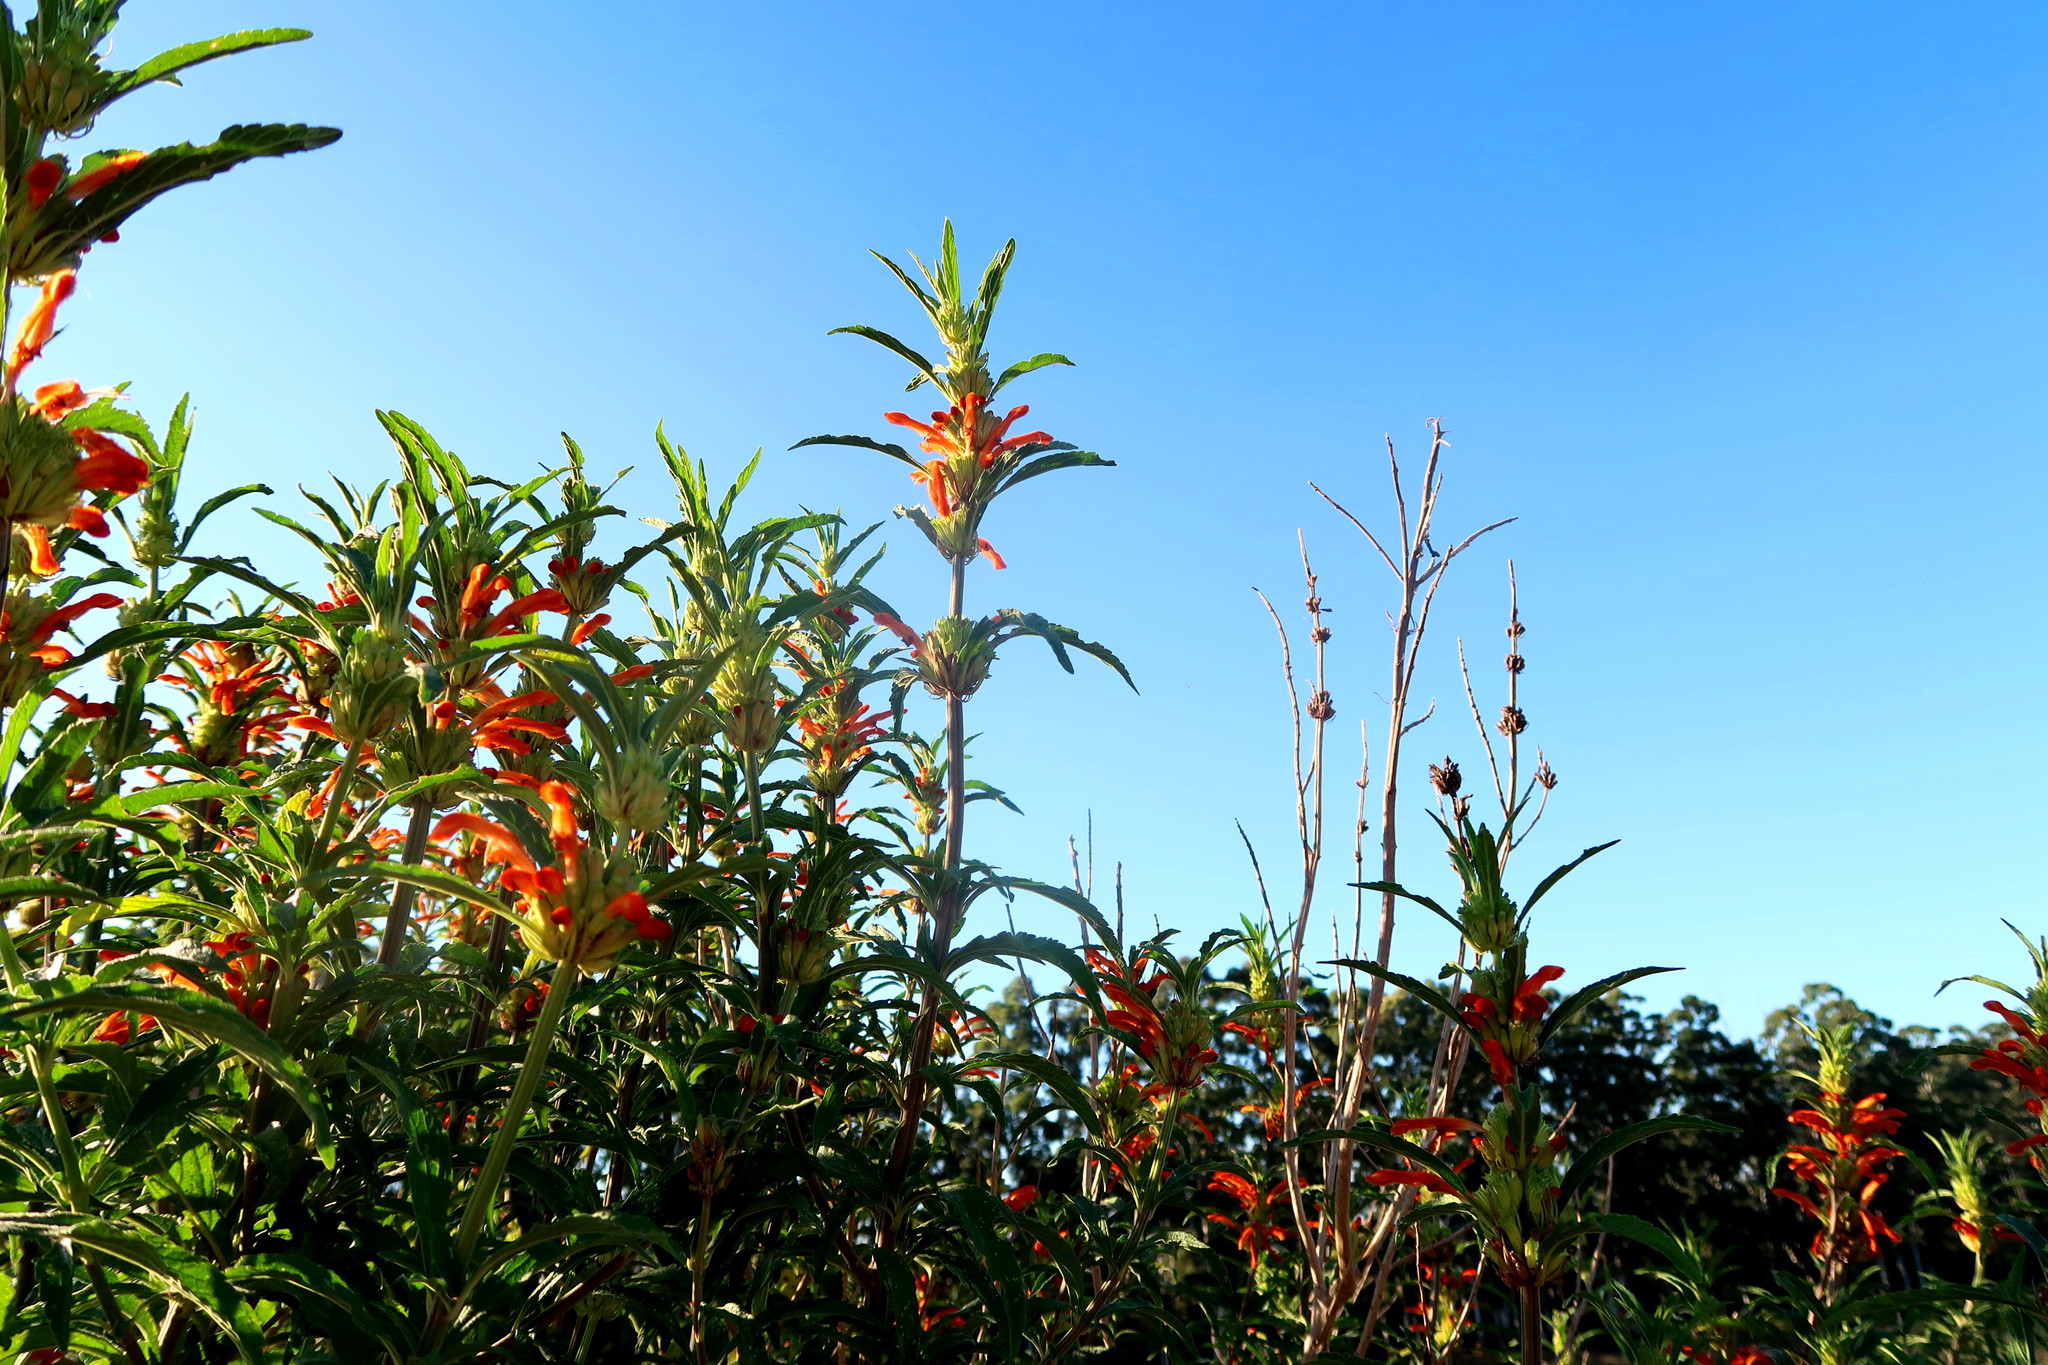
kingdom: Plantae
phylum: Tracheophyta
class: Magnoliopsida
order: Lamiales
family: Lamiaceae
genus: Leonotis
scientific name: Leonotis leonurus
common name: Lion's ear
